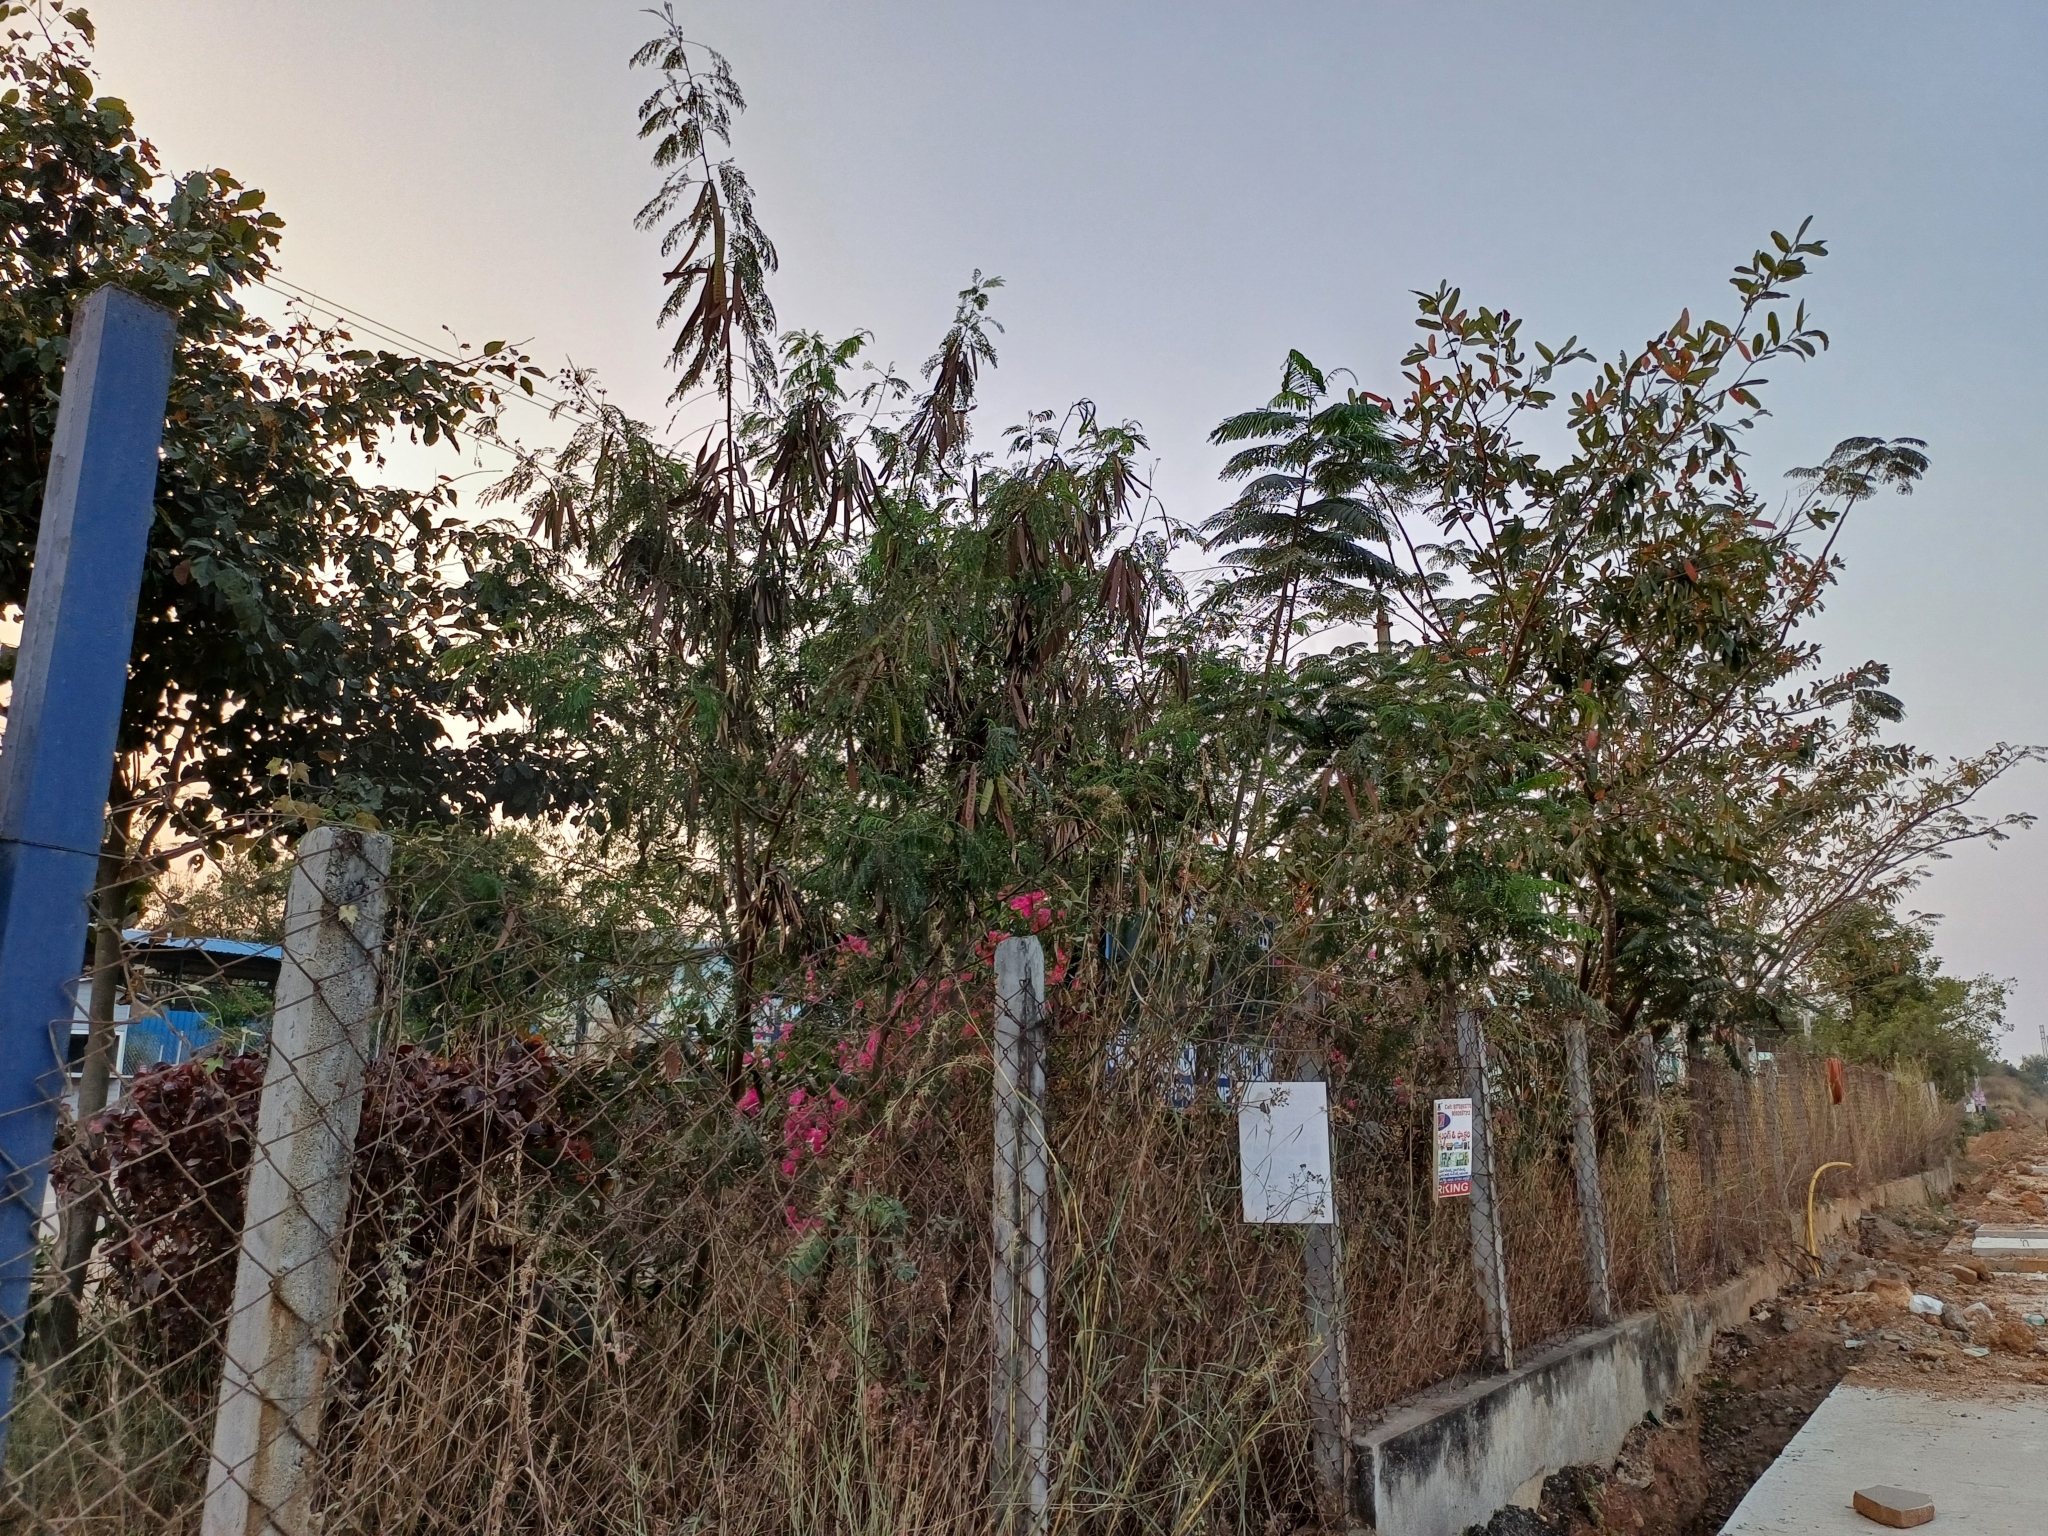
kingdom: Plantae
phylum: Tracheophyta
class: Magnoliopsida
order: Fabales
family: Fabaceae
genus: Leucaena
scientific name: Leucaena leucocephala
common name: White leadtree
